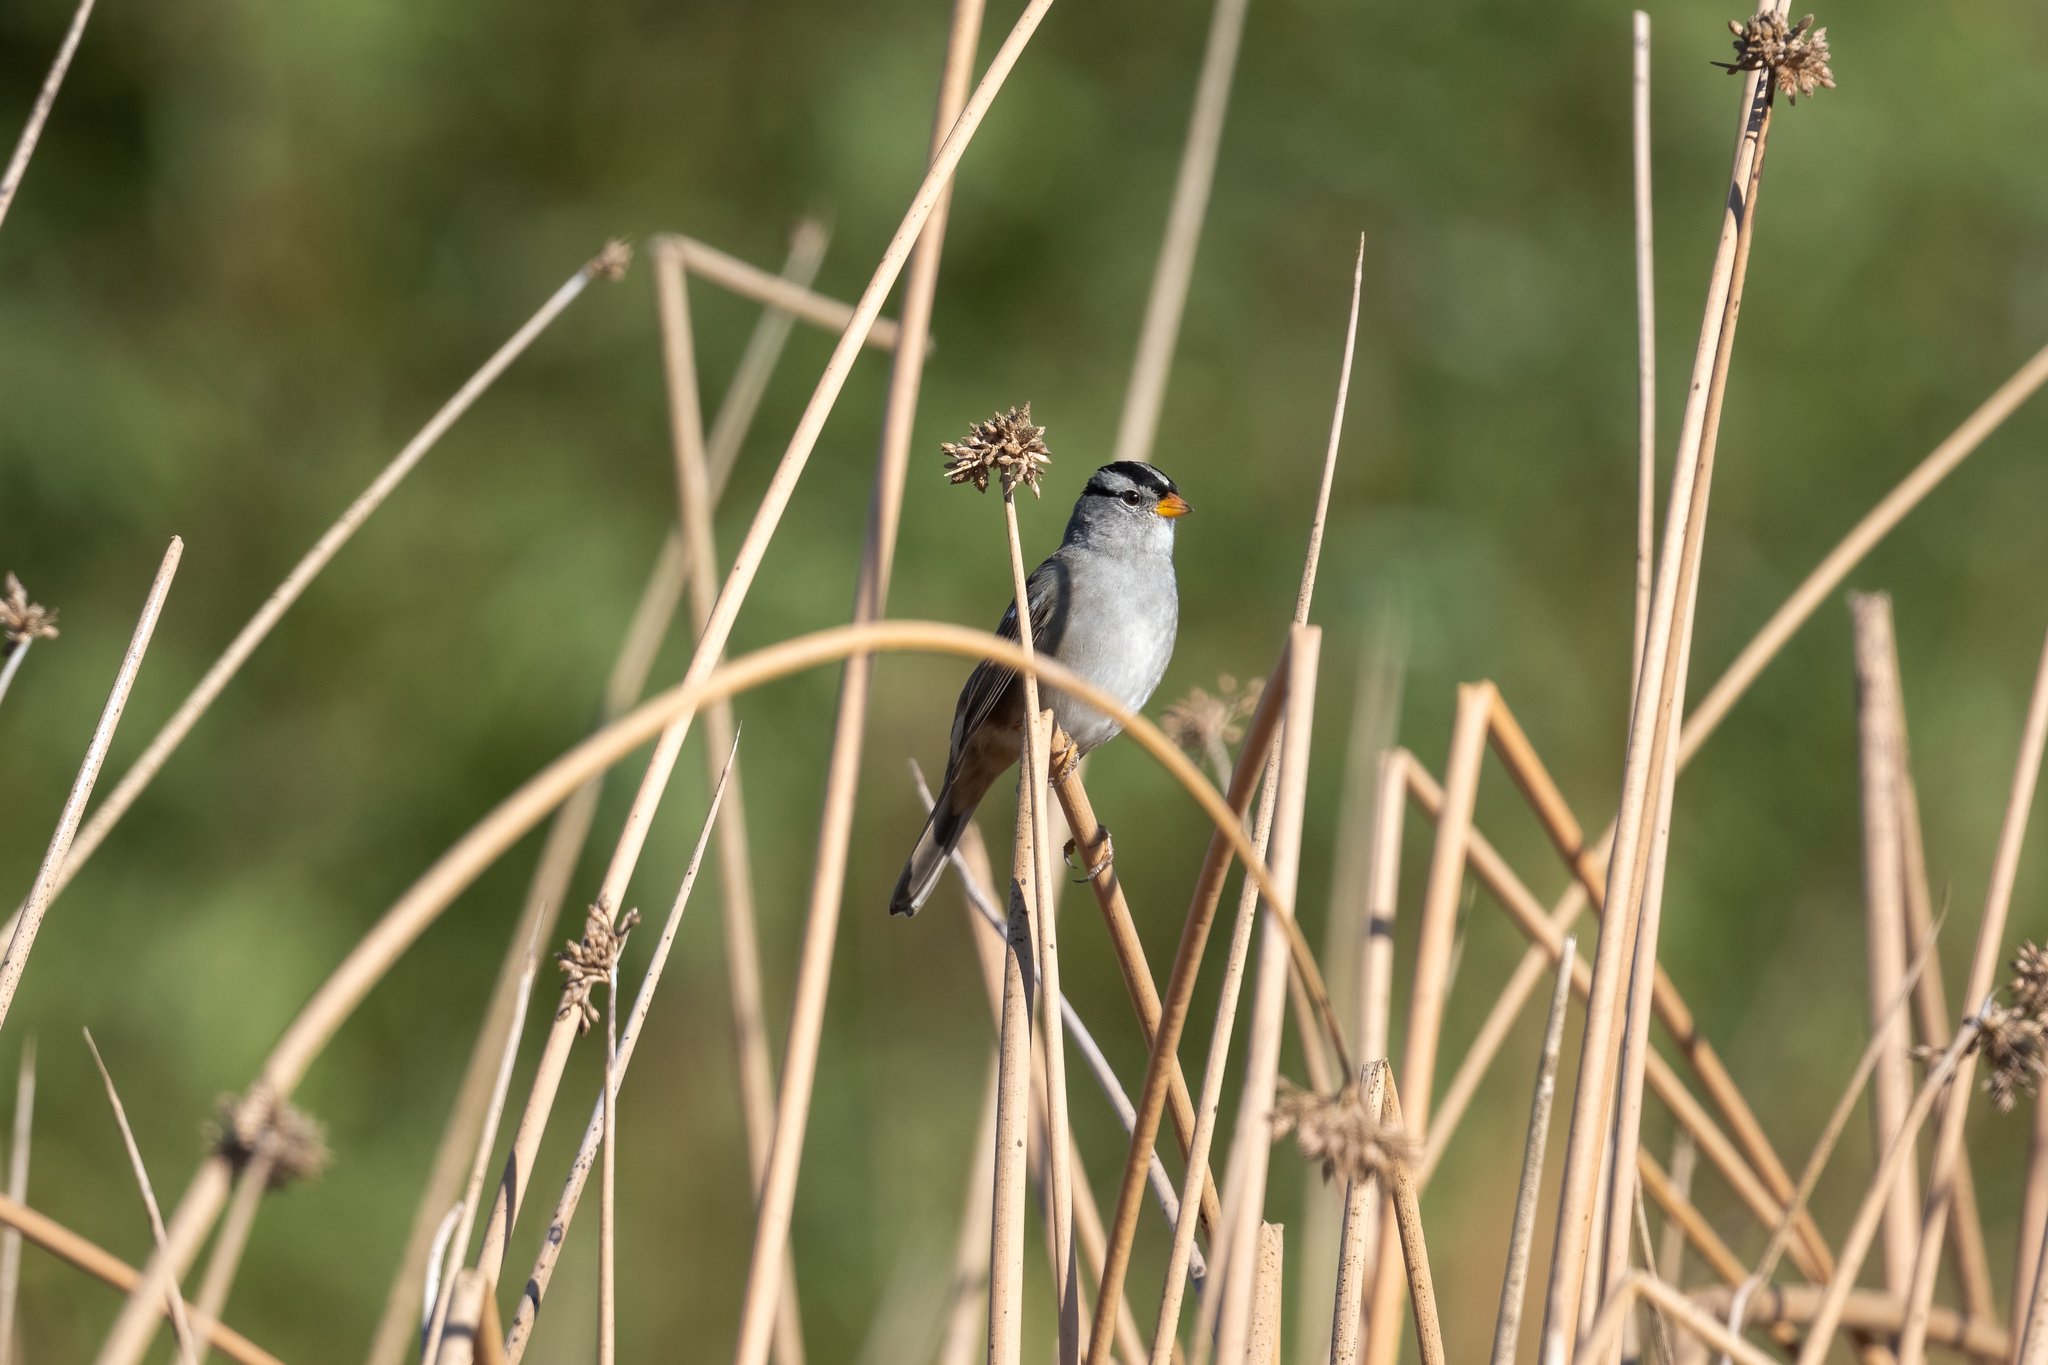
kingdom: Animalia
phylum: Chordata
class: Aves
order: Passeriformes
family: Passerellidae
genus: Zonotrichia
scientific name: Zonotrichia leucophrys
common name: White-crowned sparrow
